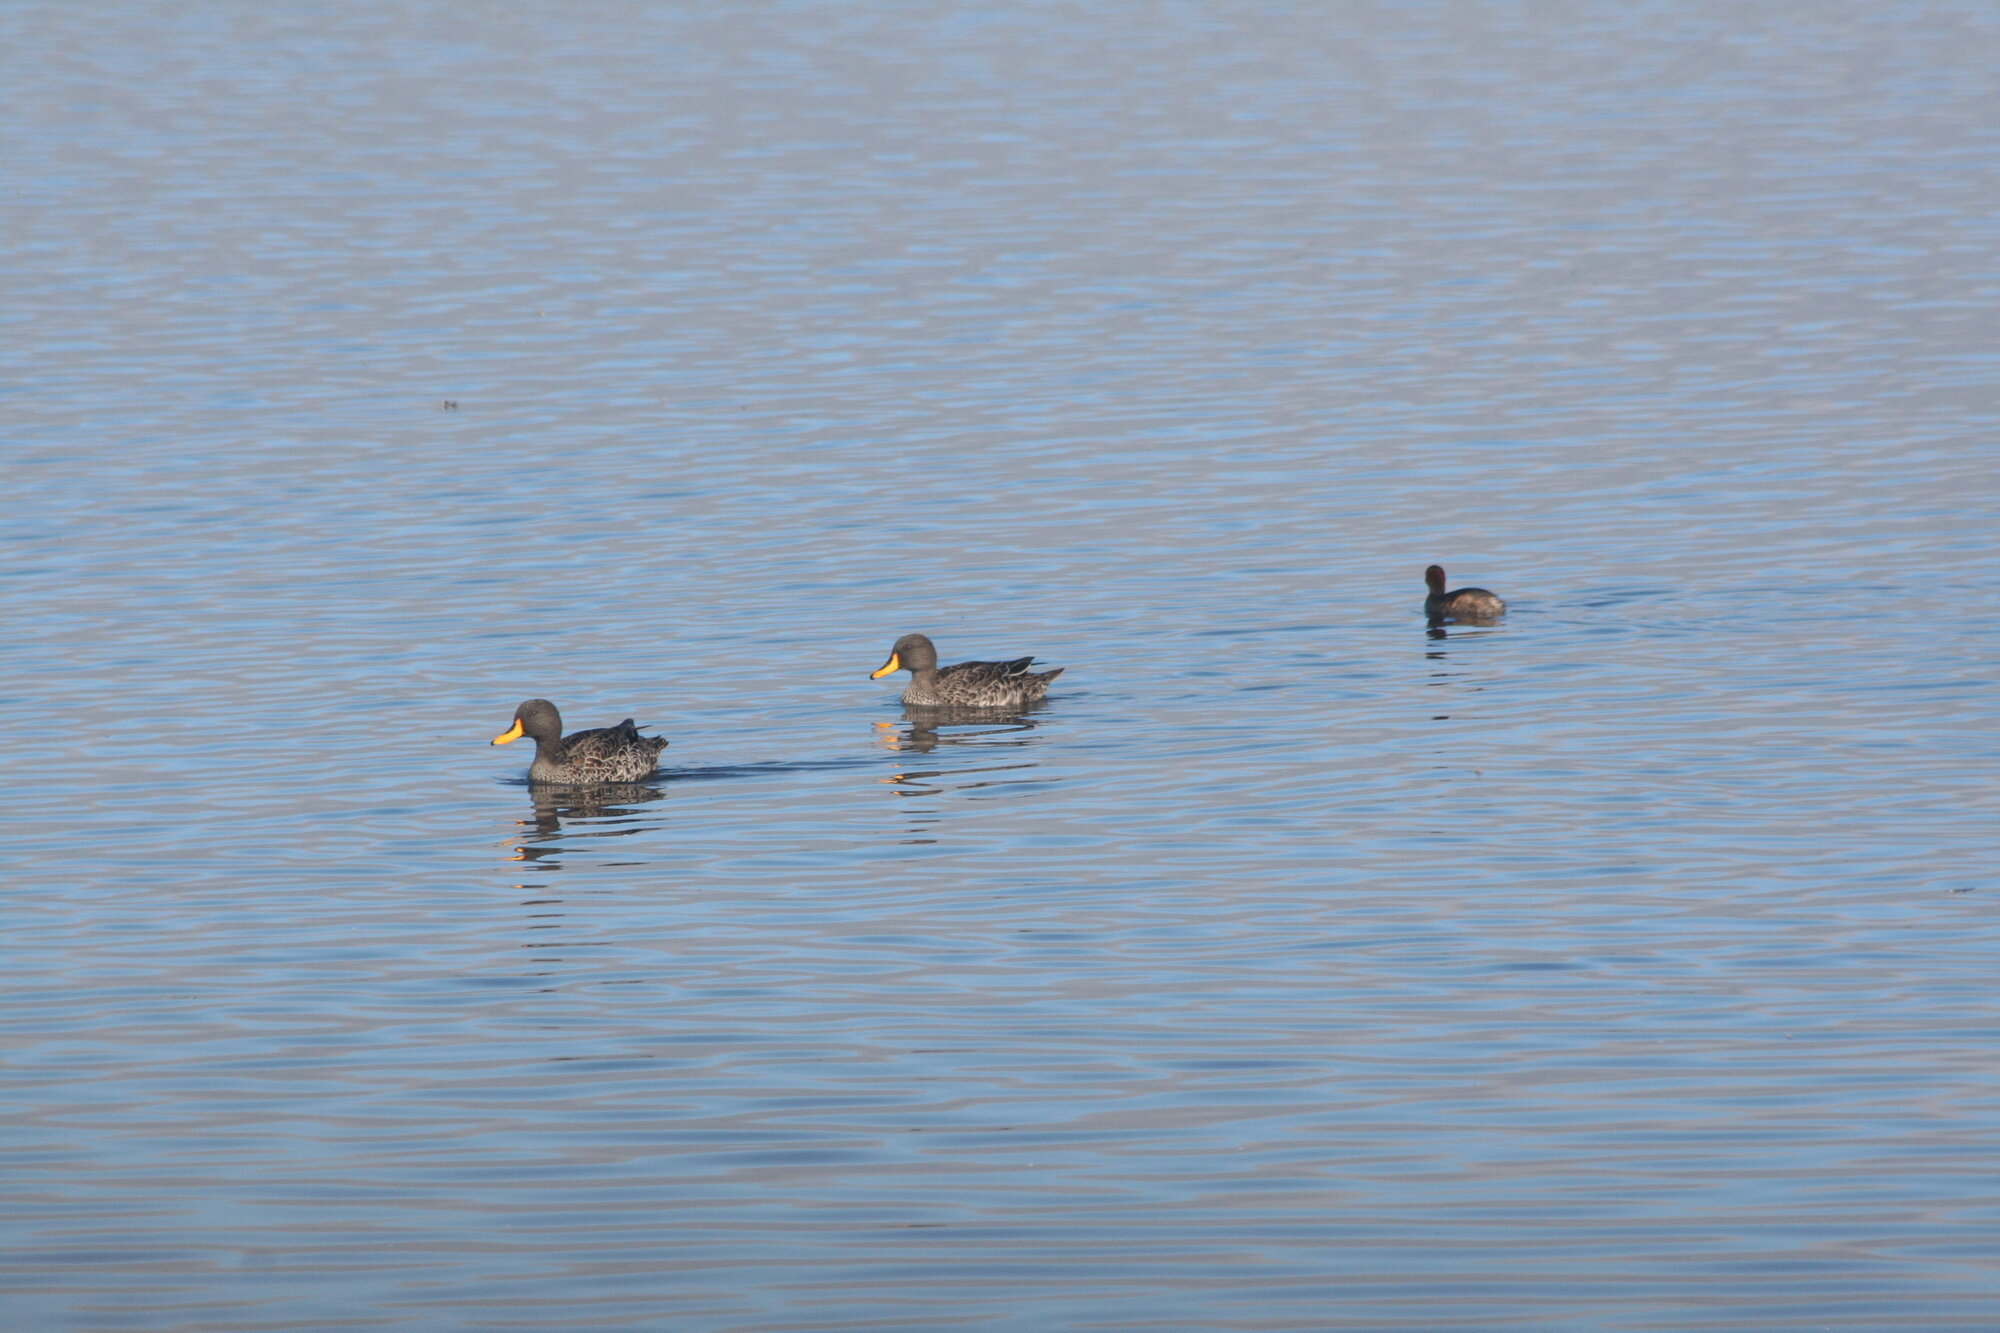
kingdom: Animalia
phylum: Chordata
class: Aves
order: Anseriformes
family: Anatidae
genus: Anas
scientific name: Anas undulata
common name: Yellow-billed duck
